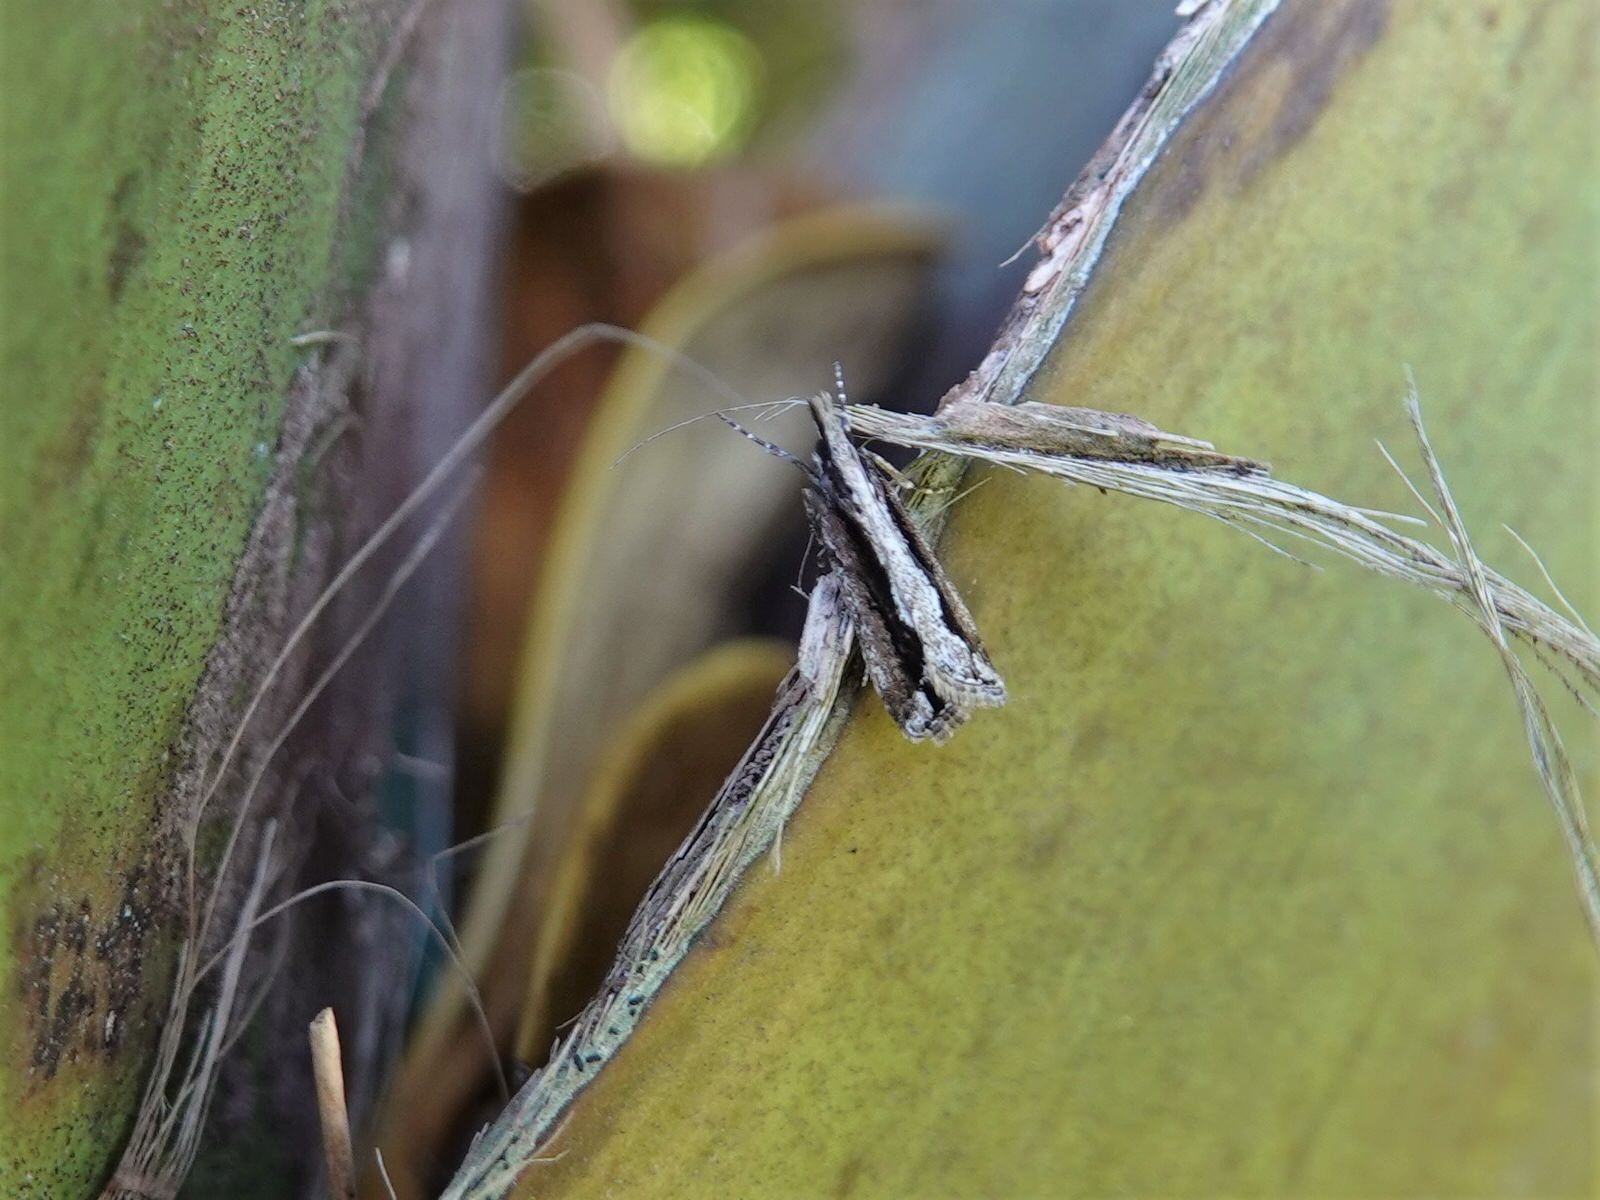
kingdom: Animalia
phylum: Arthropoda
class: Insecta
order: Lepidoptera
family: Crambidae
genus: Eudonia
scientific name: Eudonia steropaea
